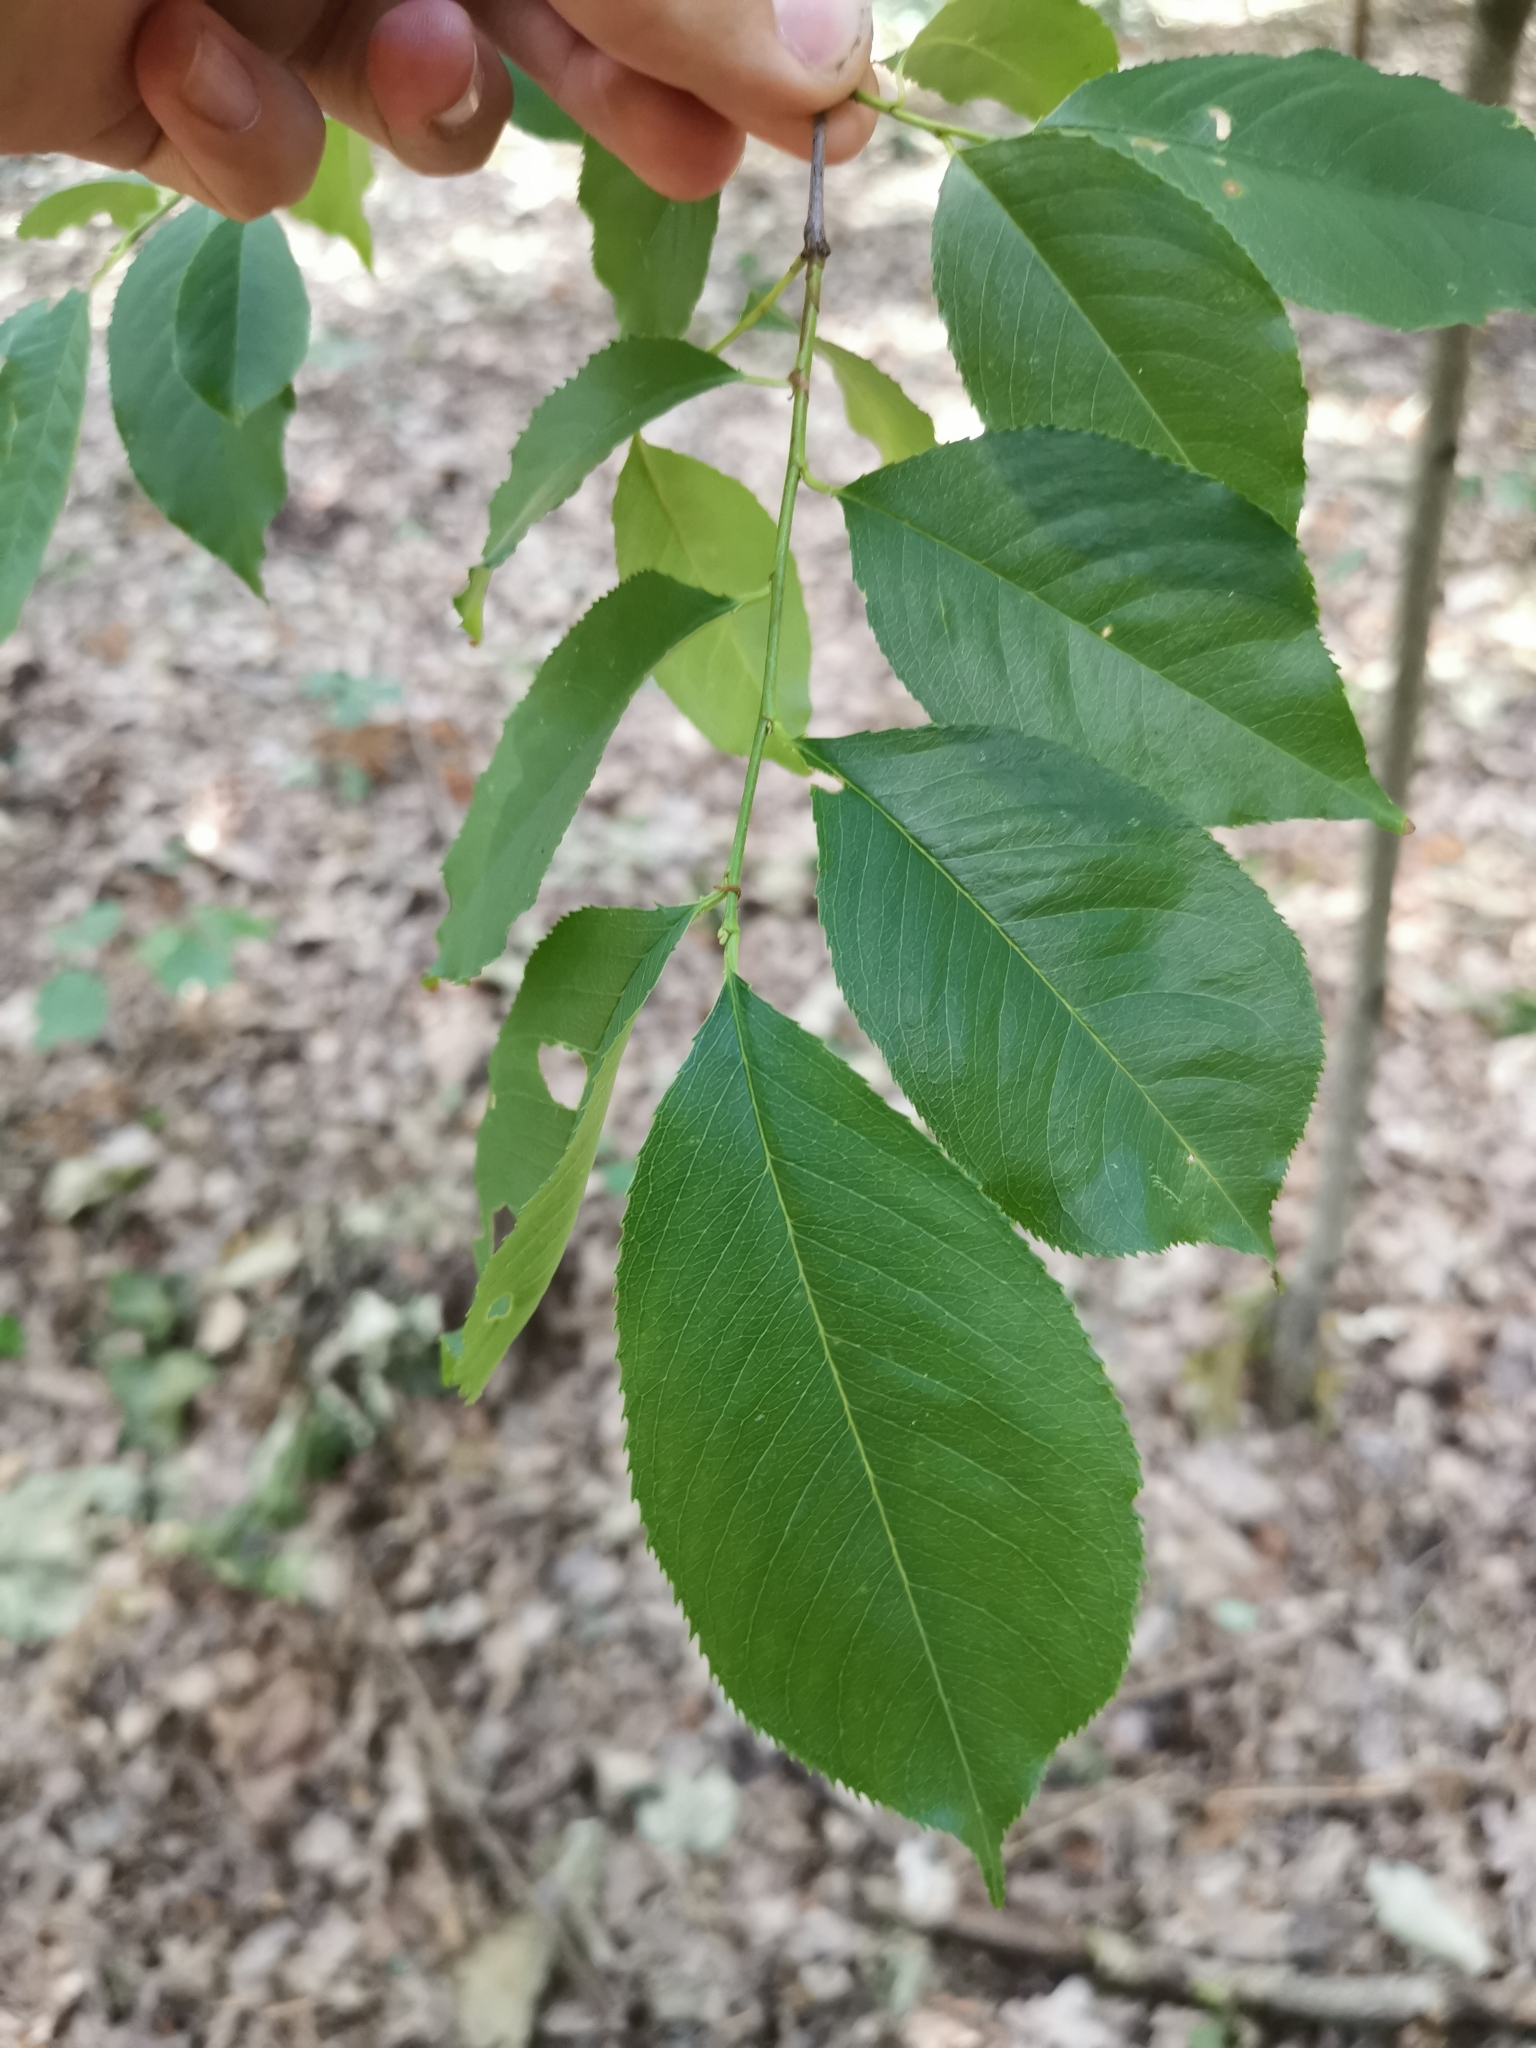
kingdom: Plantae
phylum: Tracheophyta
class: Magnoliopsida
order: Rosales
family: Rosaceae
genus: Prunus
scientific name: Prunus serotina
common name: Black cherry
